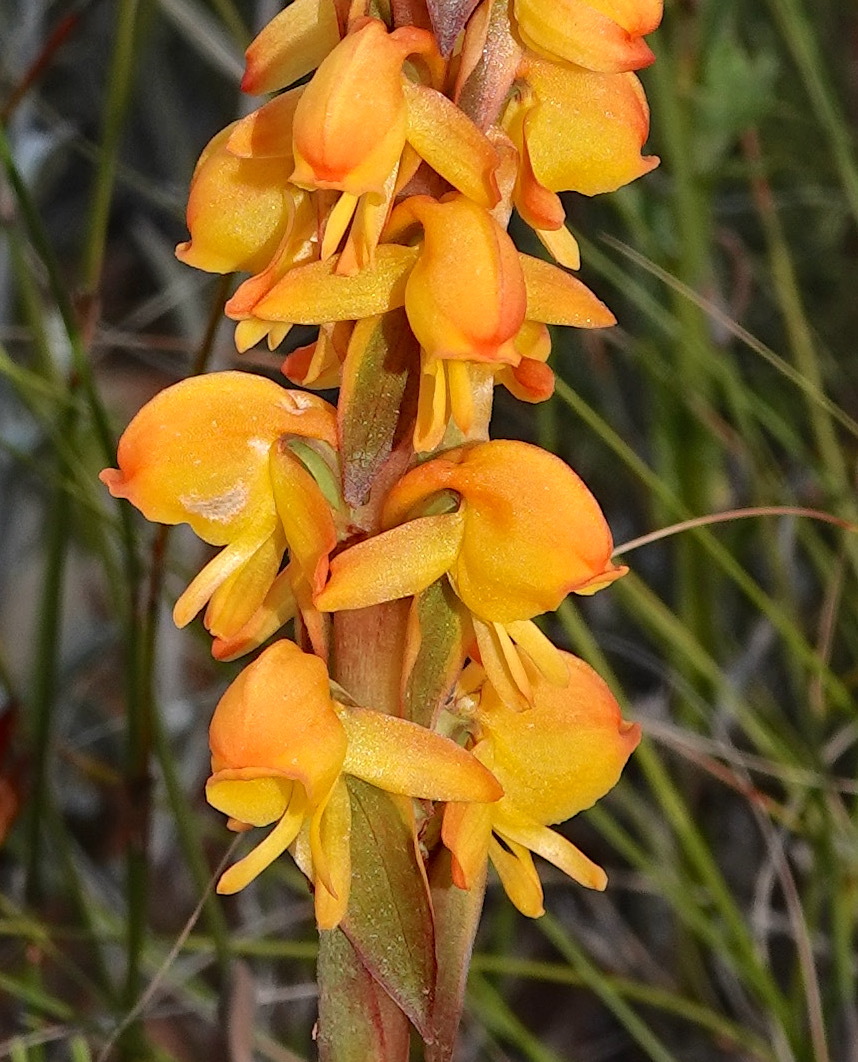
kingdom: Plantae
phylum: Tracheophyta
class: Liliopsida
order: Asparagales
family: Orchidaceae
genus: Satyrium
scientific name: Satyrium coriifolium
